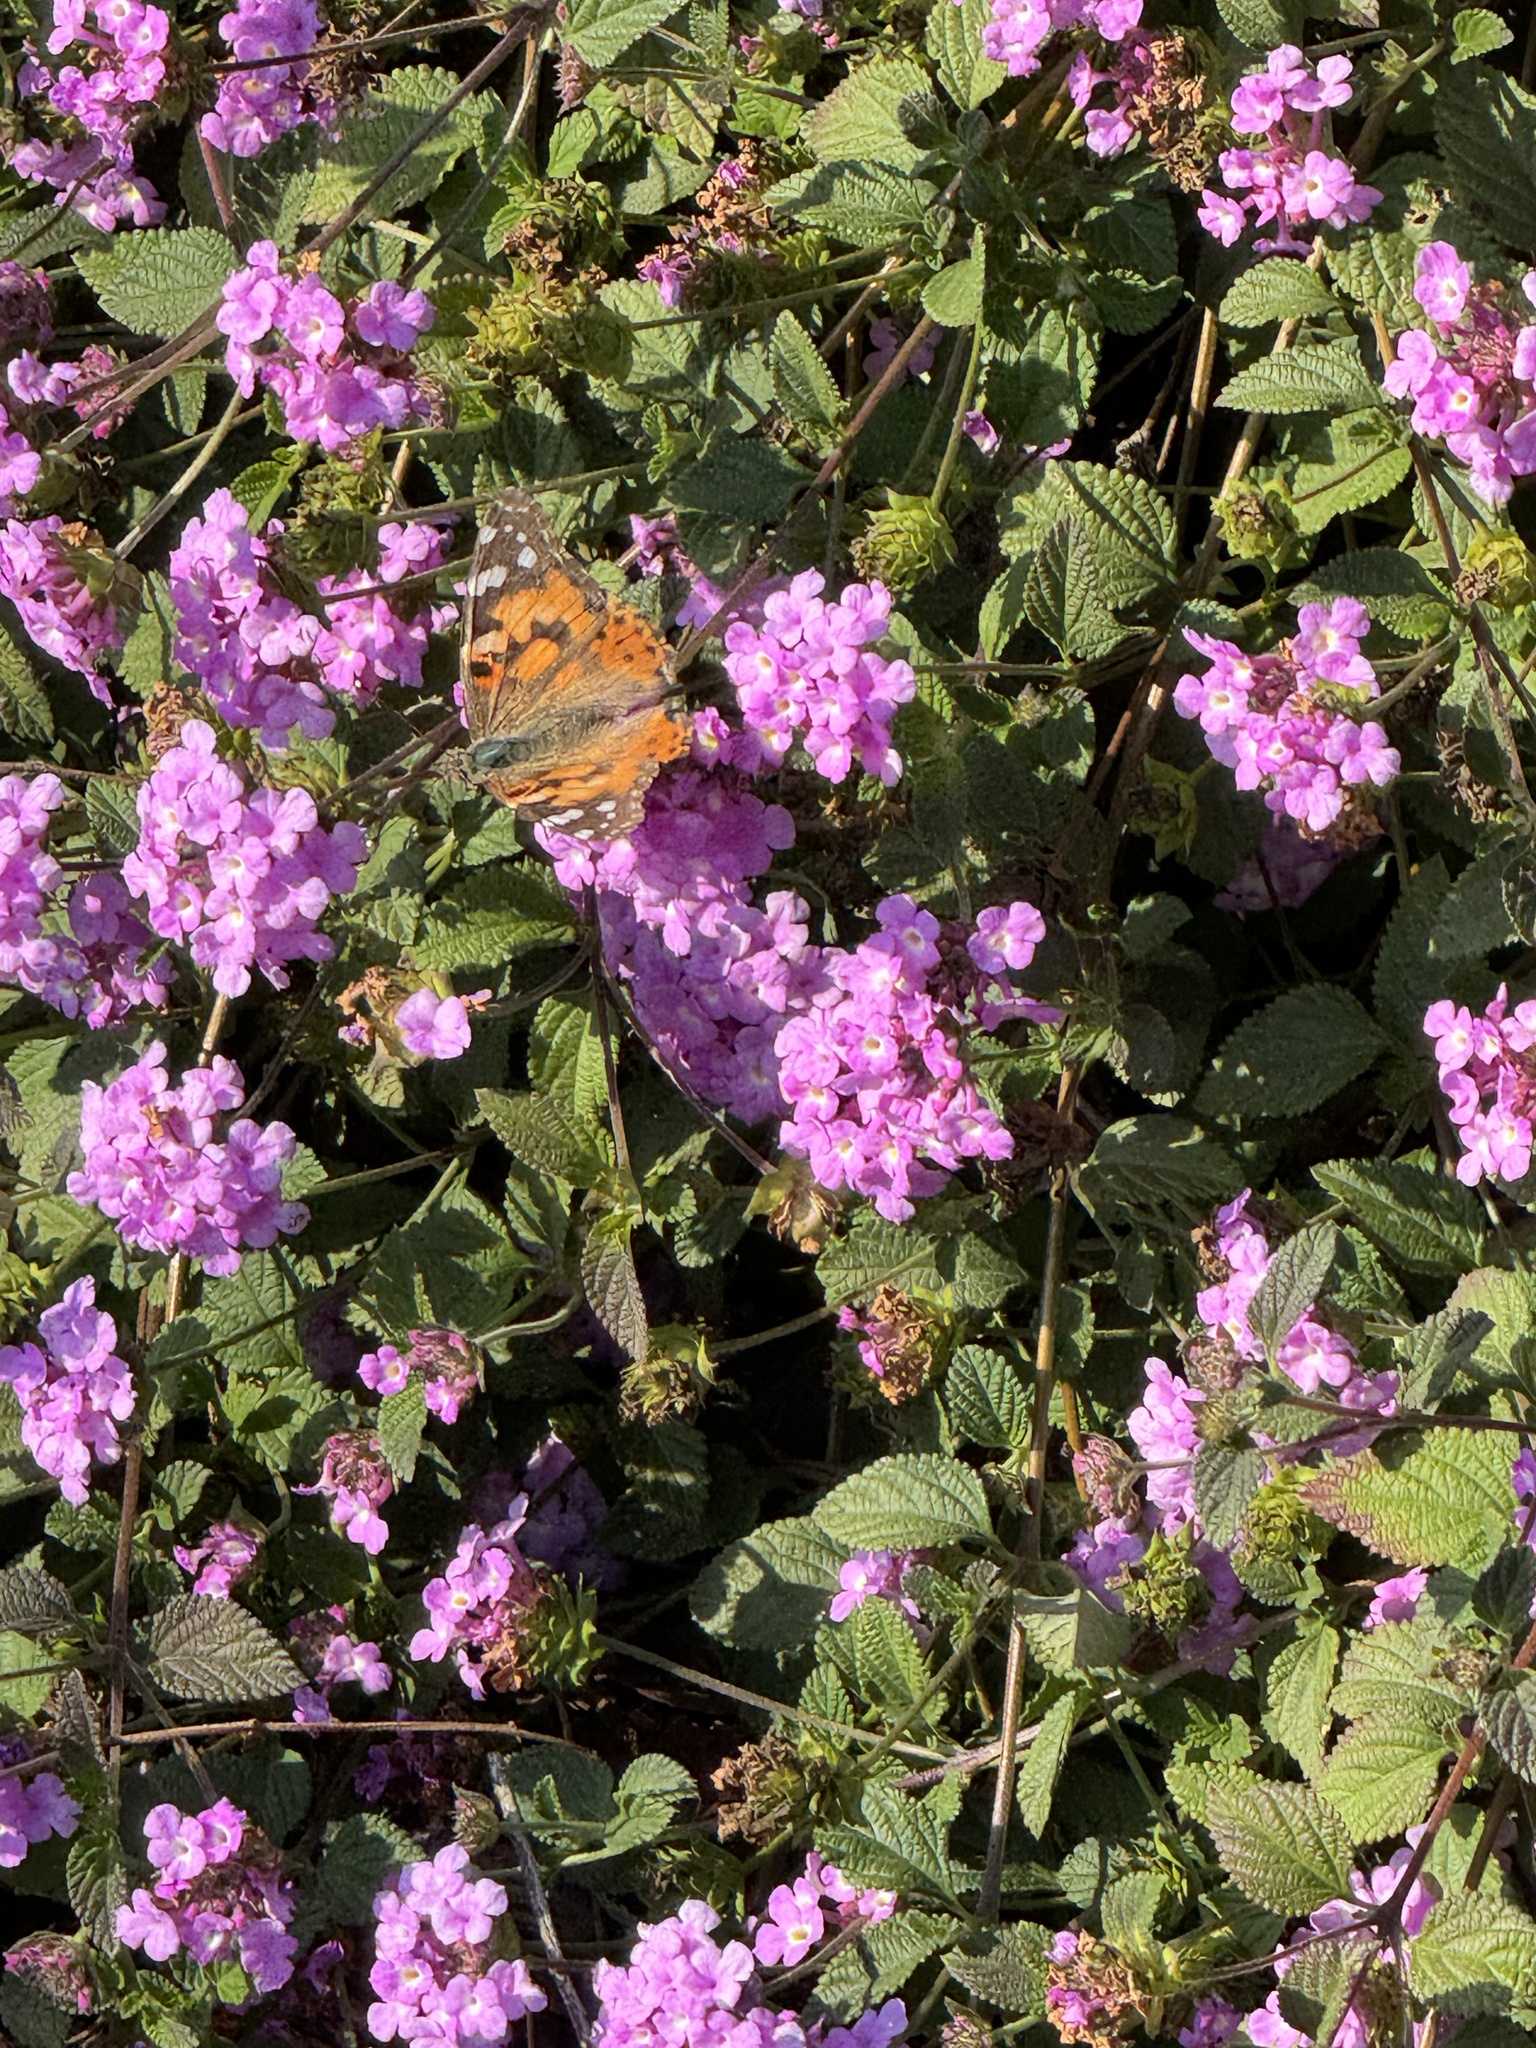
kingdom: Animalia
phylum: Arthropoda
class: Insecta
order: Lepidoptera
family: Nymphalidae
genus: Vanessa
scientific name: Vanessa cardui
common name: Painted lady
